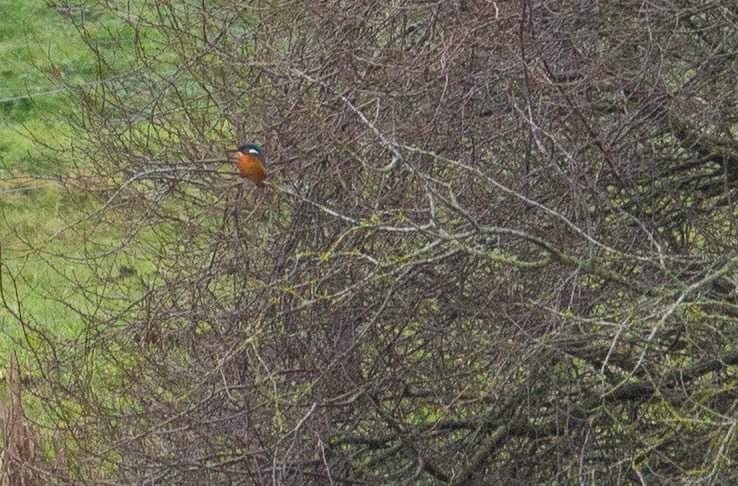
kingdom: Animalia
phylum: Chordata
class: Aves
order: Coraciiformes
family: Alcedinidae
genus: Alcedo
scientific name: Alcedo atthis
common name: Common kingfisher
